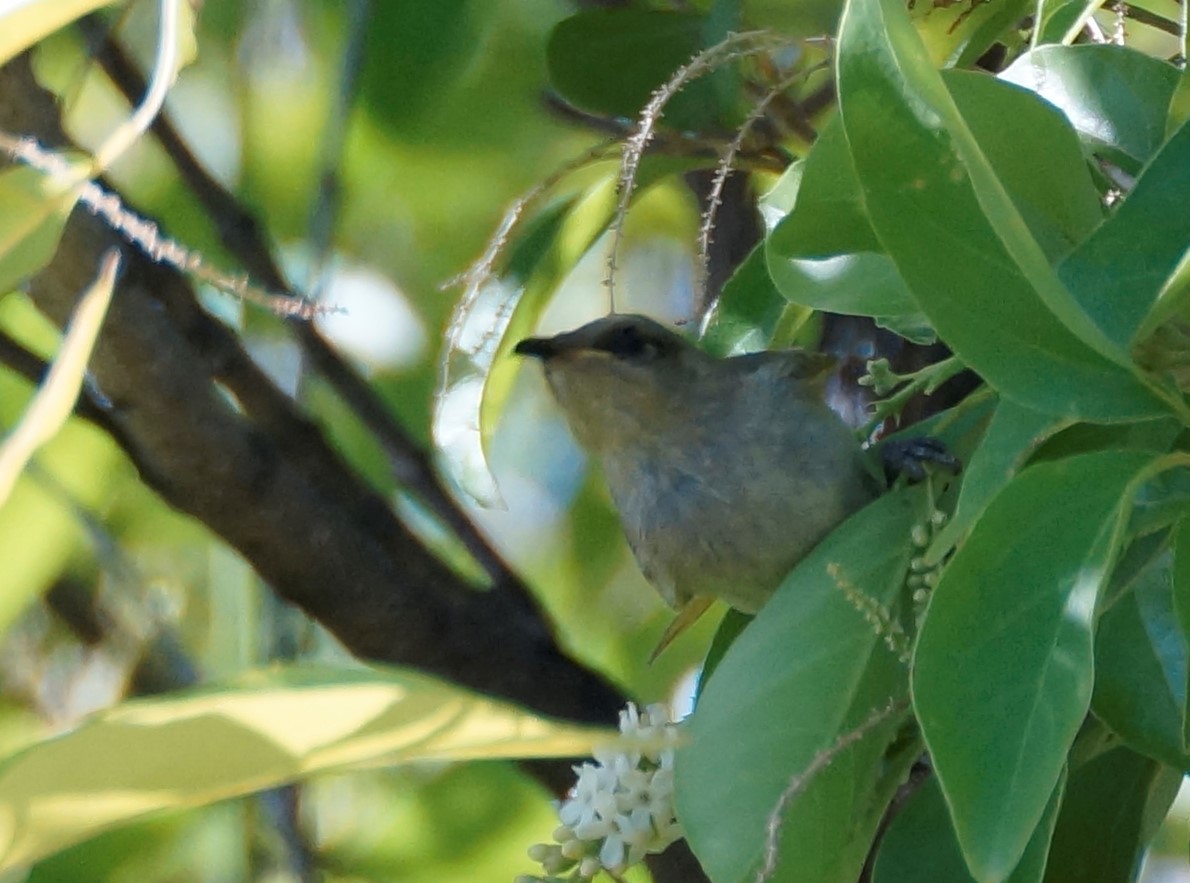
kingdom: Animalia
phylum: Chordata
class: Aves
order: Passeriformes
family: Meliphagidae
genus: Lichmera
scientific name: Lichmera indistincta
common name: Brown honeyeater
